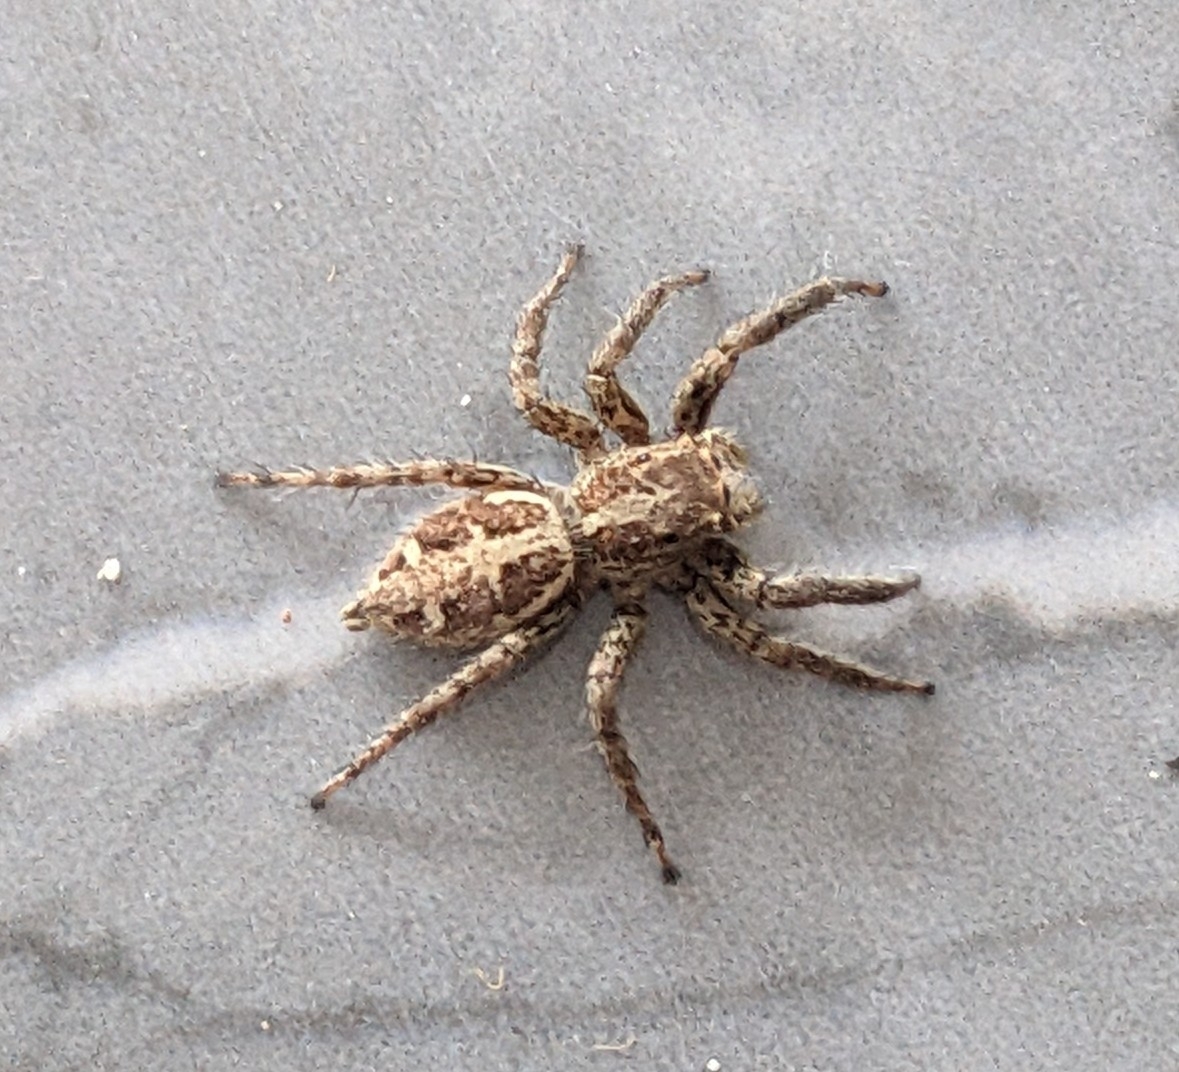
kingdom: Animalia
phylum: Arthropoda
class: Arachnida
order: Araneae
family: Salticidae
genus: Plexippus
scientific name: Plexippus paykulli
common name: Pantropical jumper
